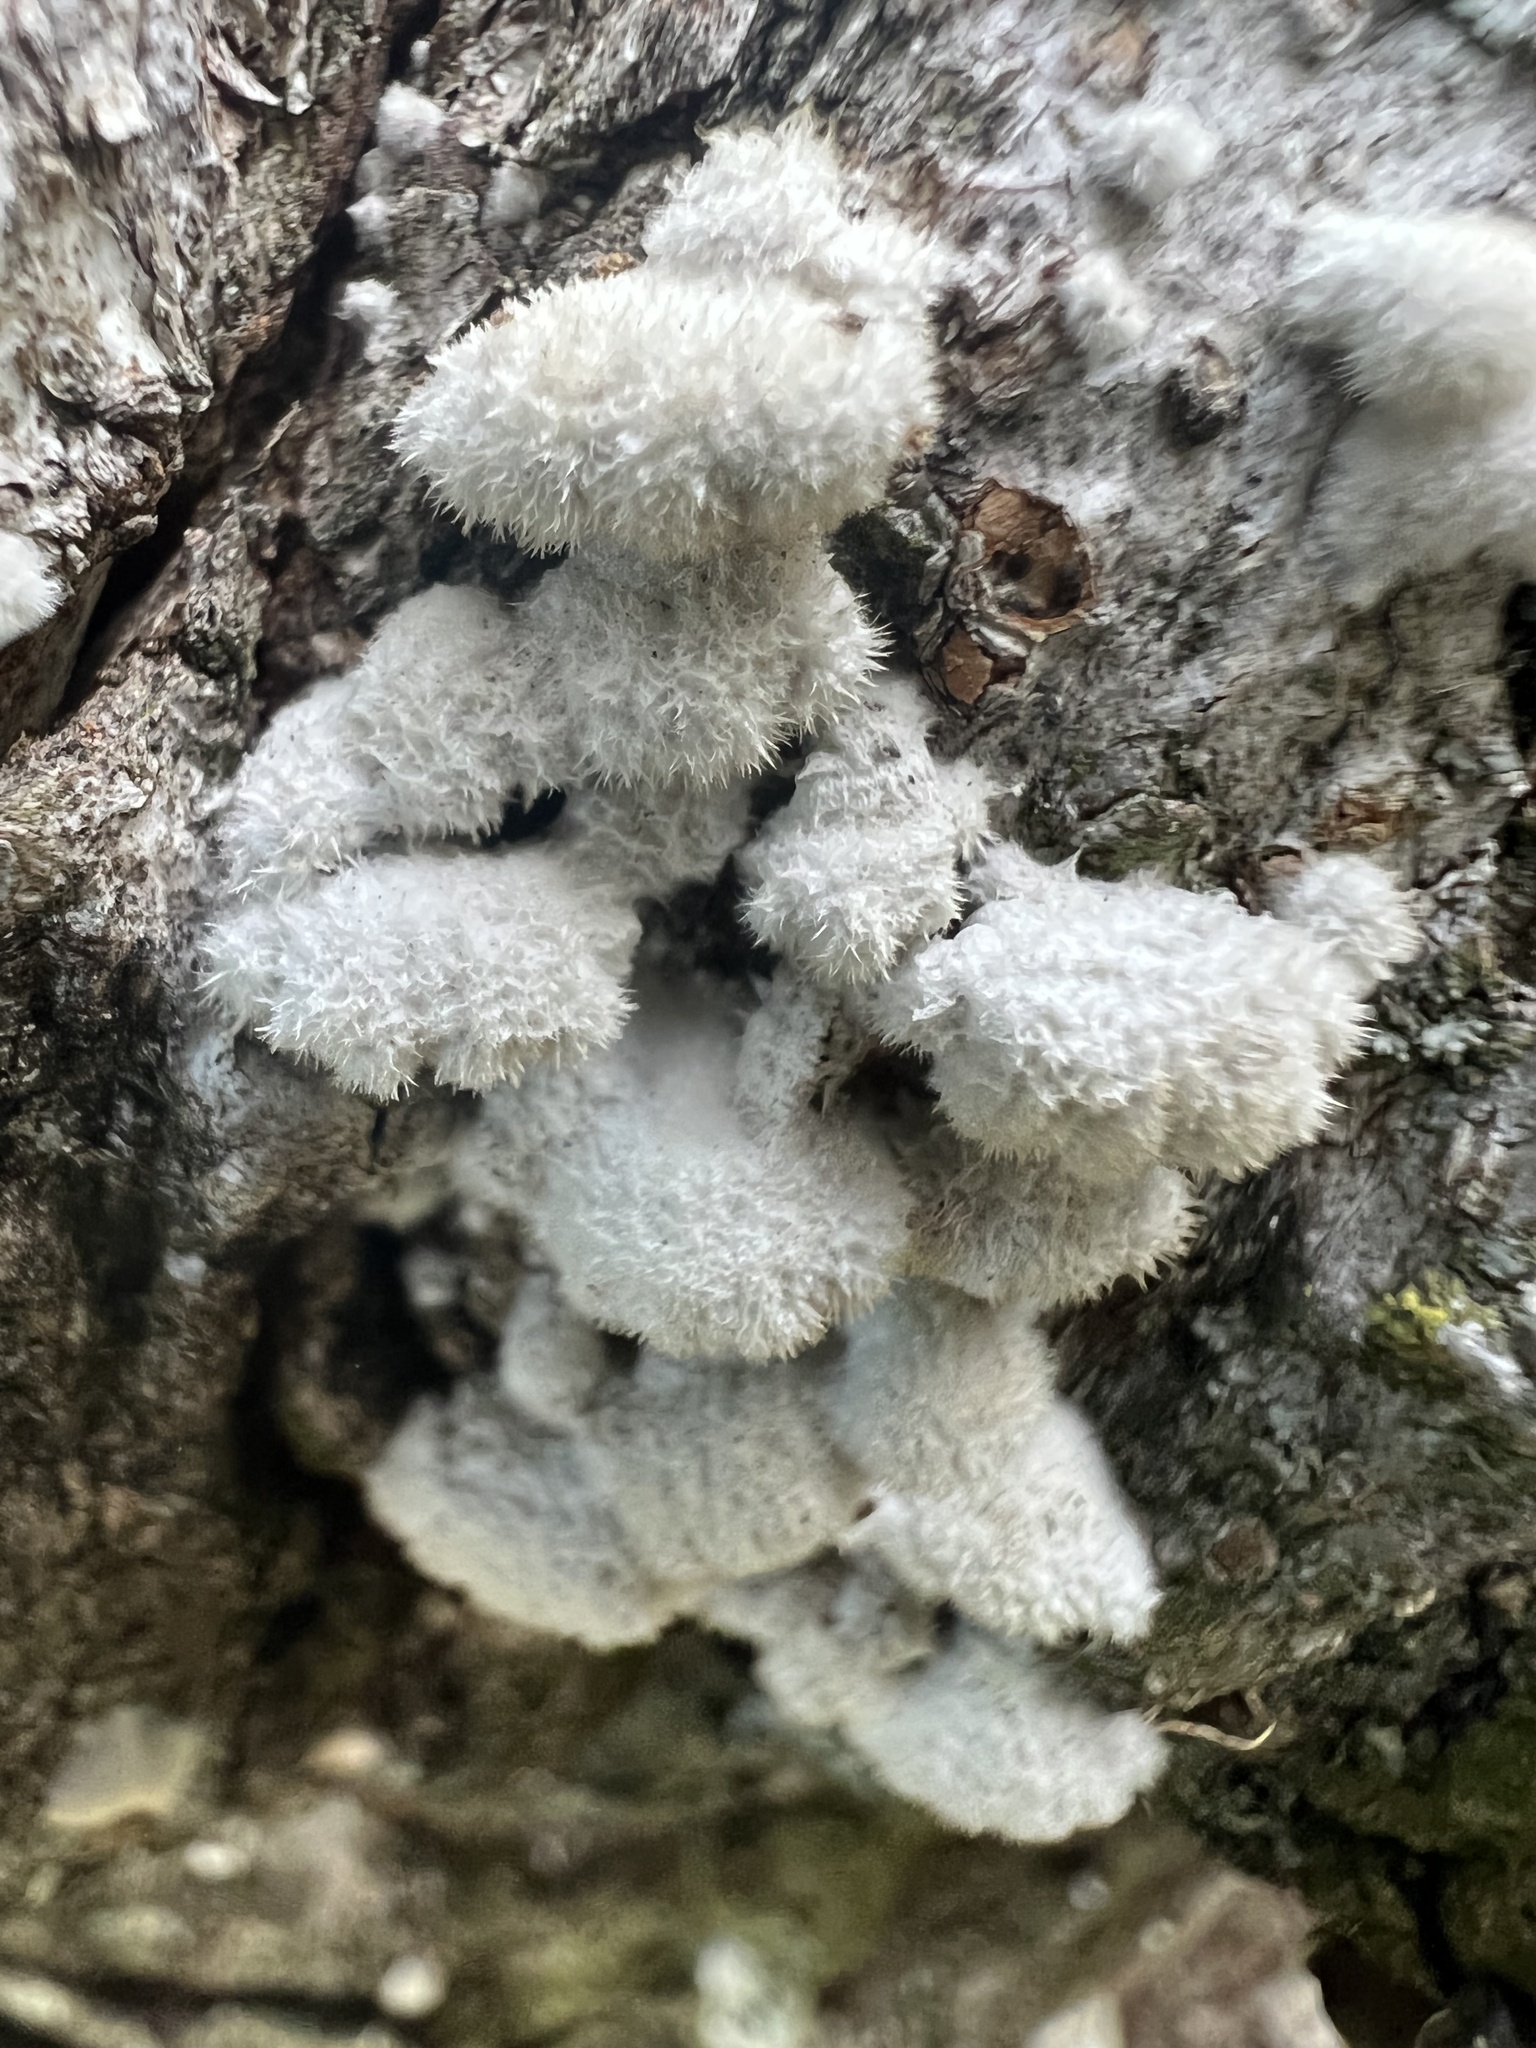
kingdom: Fungi
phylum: Basidiomycota
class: Agaricomycetes
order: Agaricales
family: Schizophyllaceae
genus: Schizophyllum
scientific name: Schizophyllum commune
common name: Common porecrust
